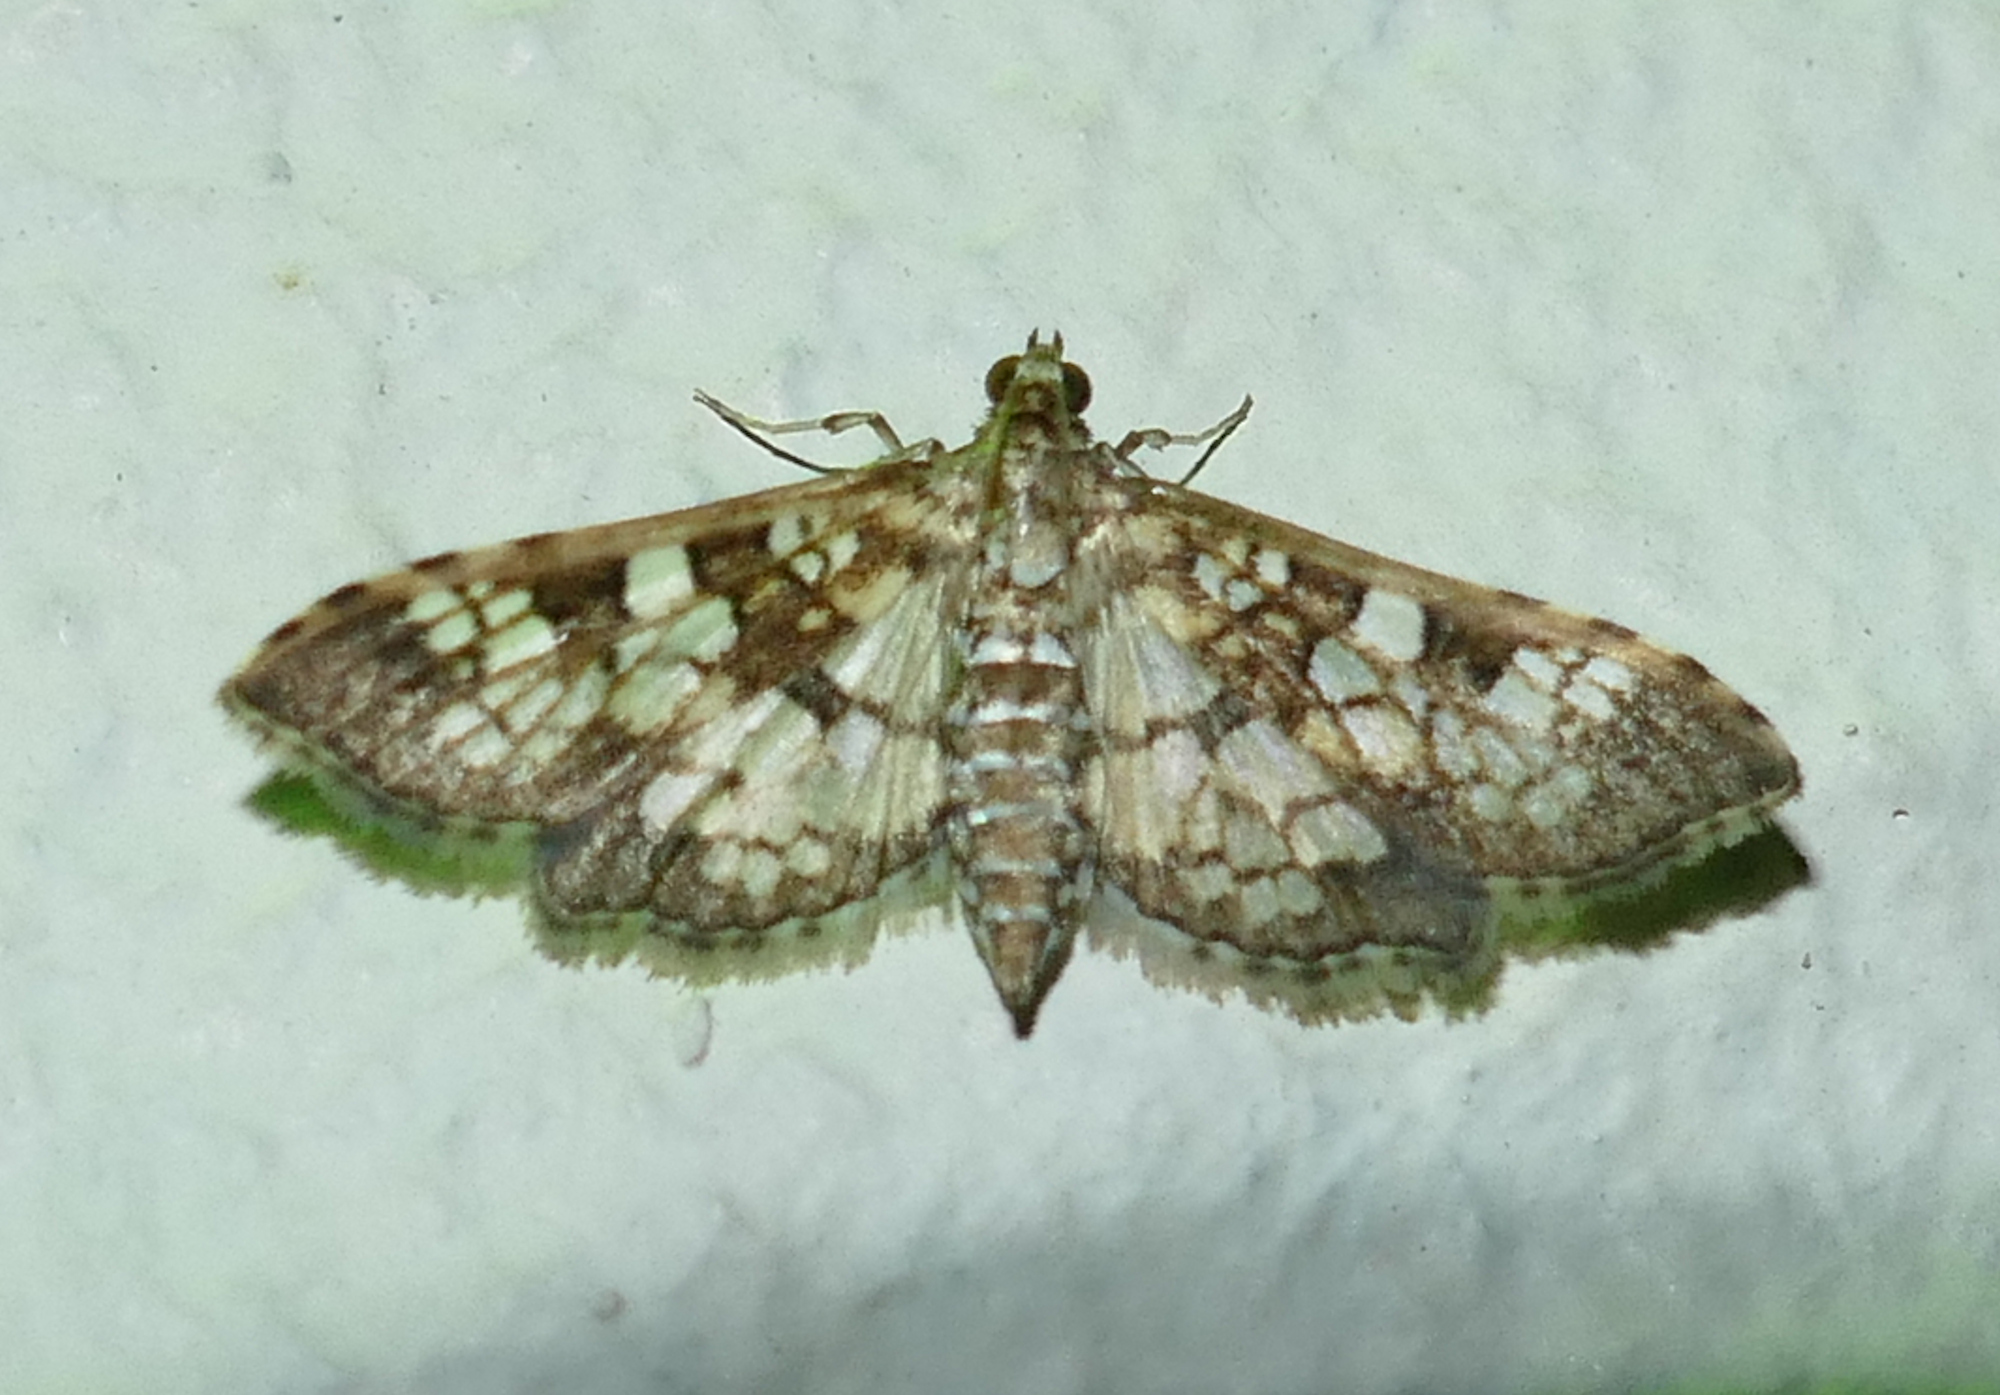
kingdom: Animalia
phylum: Arthropoda
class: Insecta
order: Lepidoptera
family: Crambidae
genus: Samea
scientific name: Samea ecclesialis
